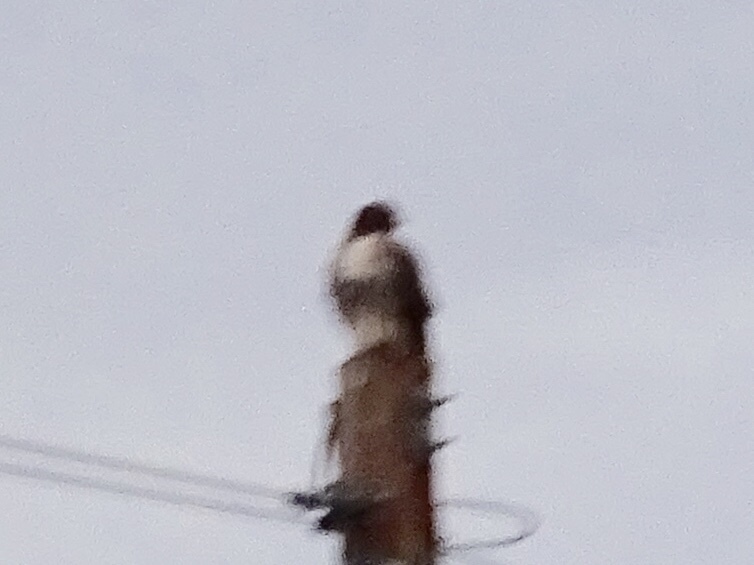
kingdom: Animalia
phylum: Chordata
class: Aves
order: Accipitriformes
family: Accipitridae
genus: Buteo
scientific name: Buteo jamaicensis
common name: Red-tailed hawk
